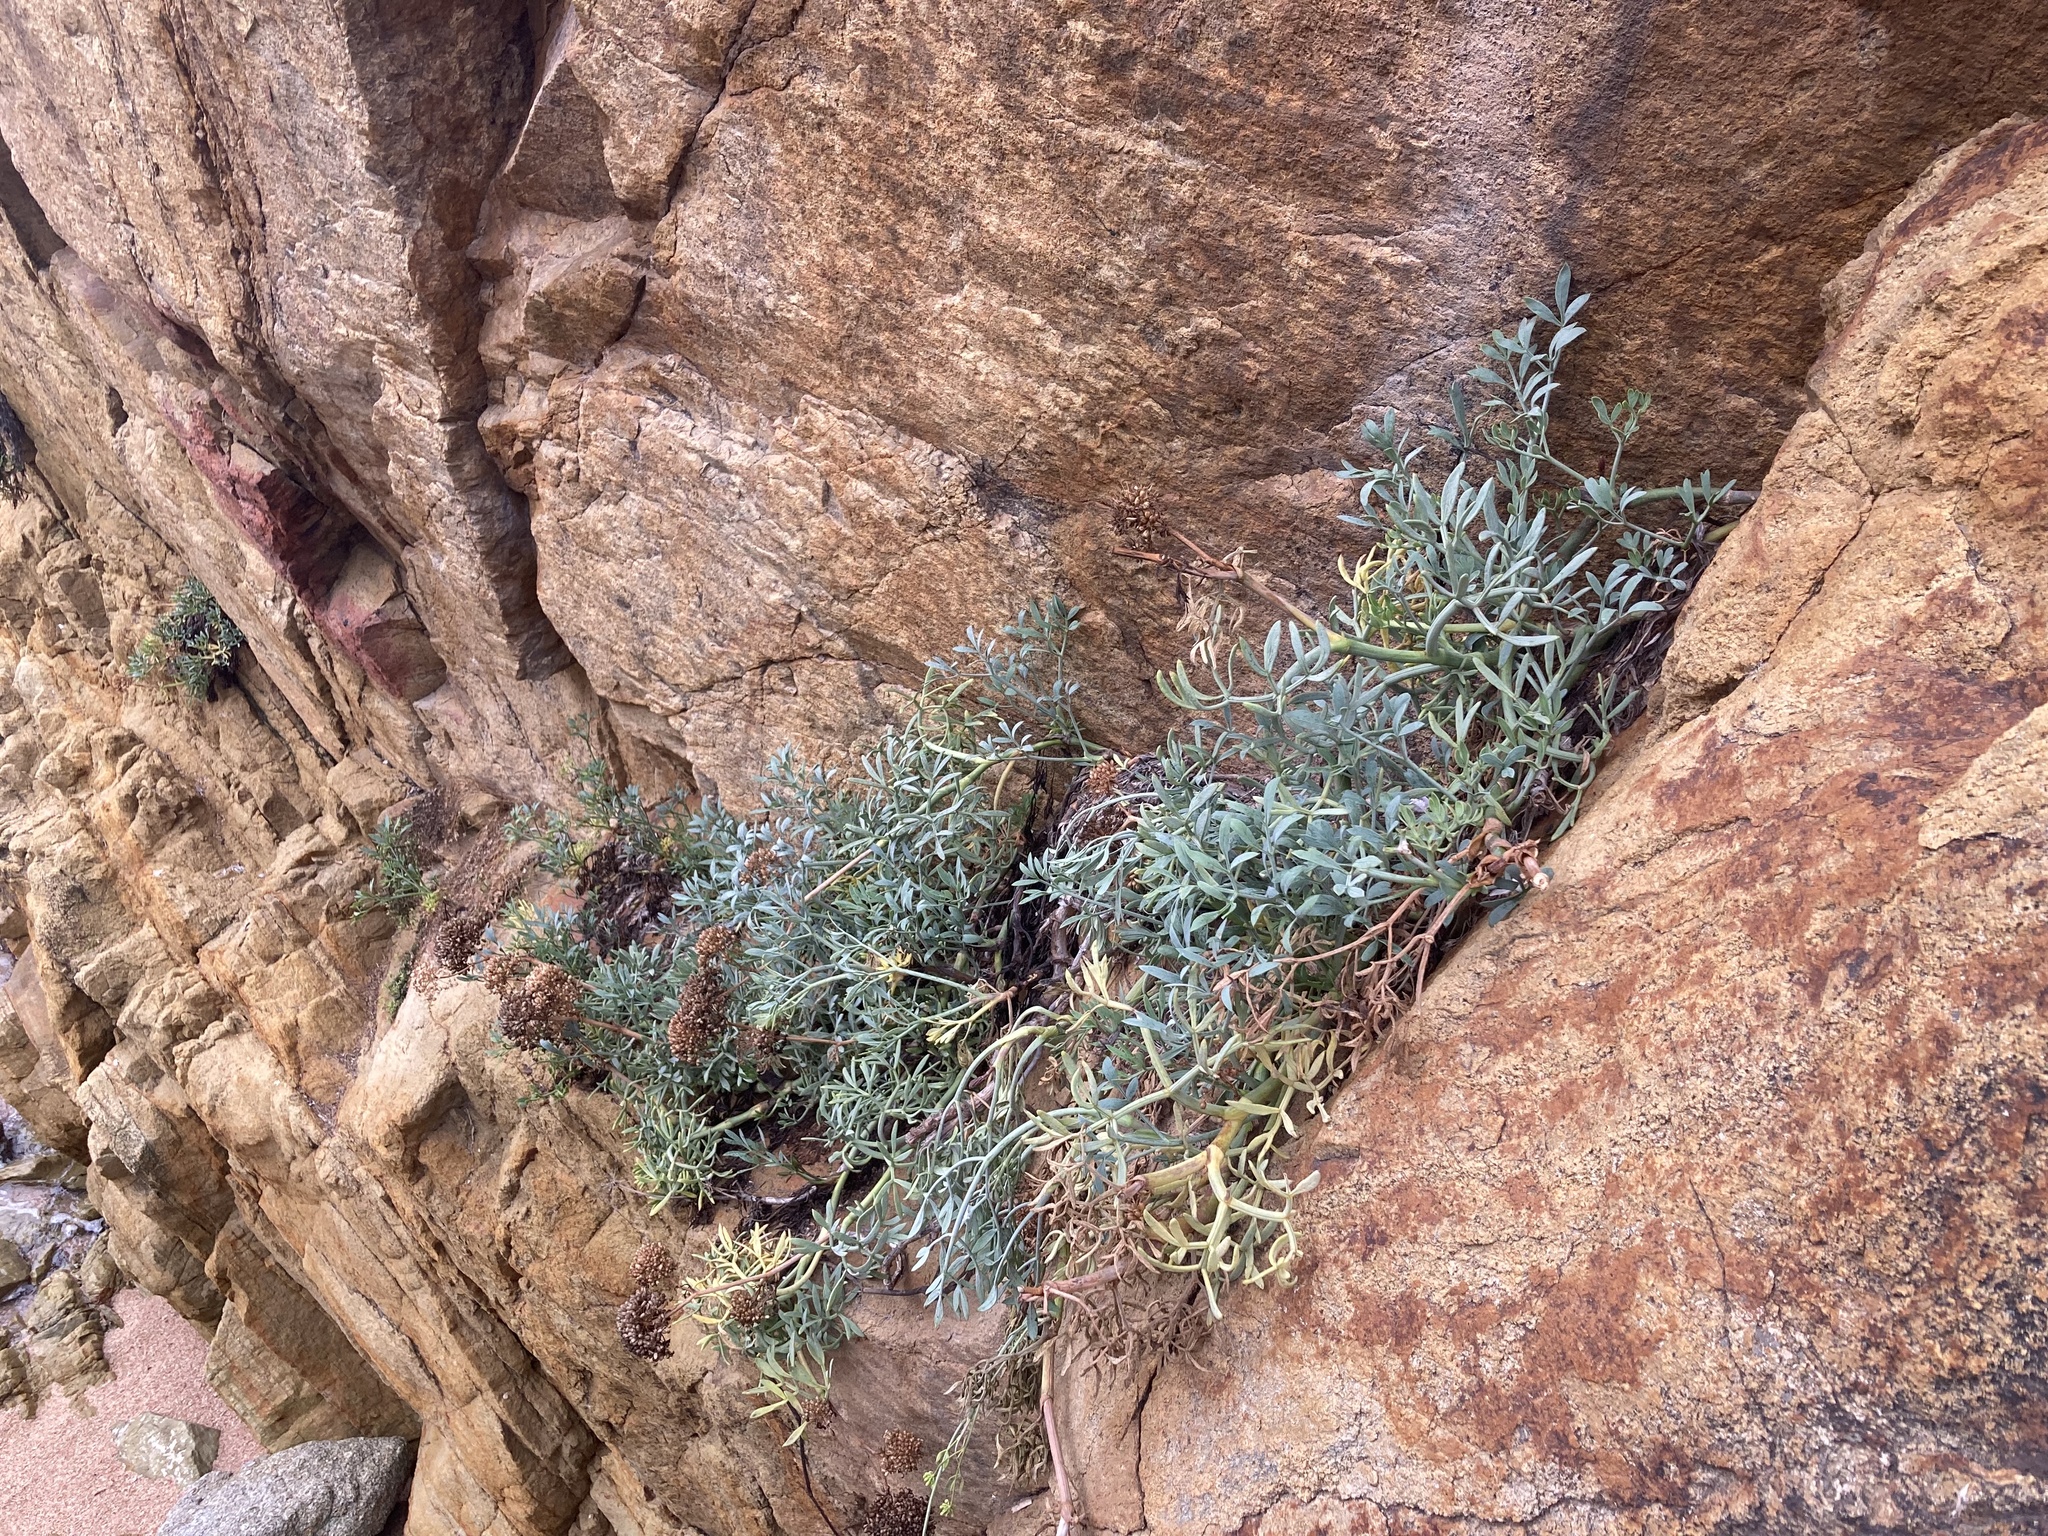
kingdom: Plantae
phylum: Tracheophyta
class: Magnoliopsida
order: Apiales
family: Apiaceae
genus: Crithmum
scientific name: Crithmum maritimum
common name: Rock samphire
